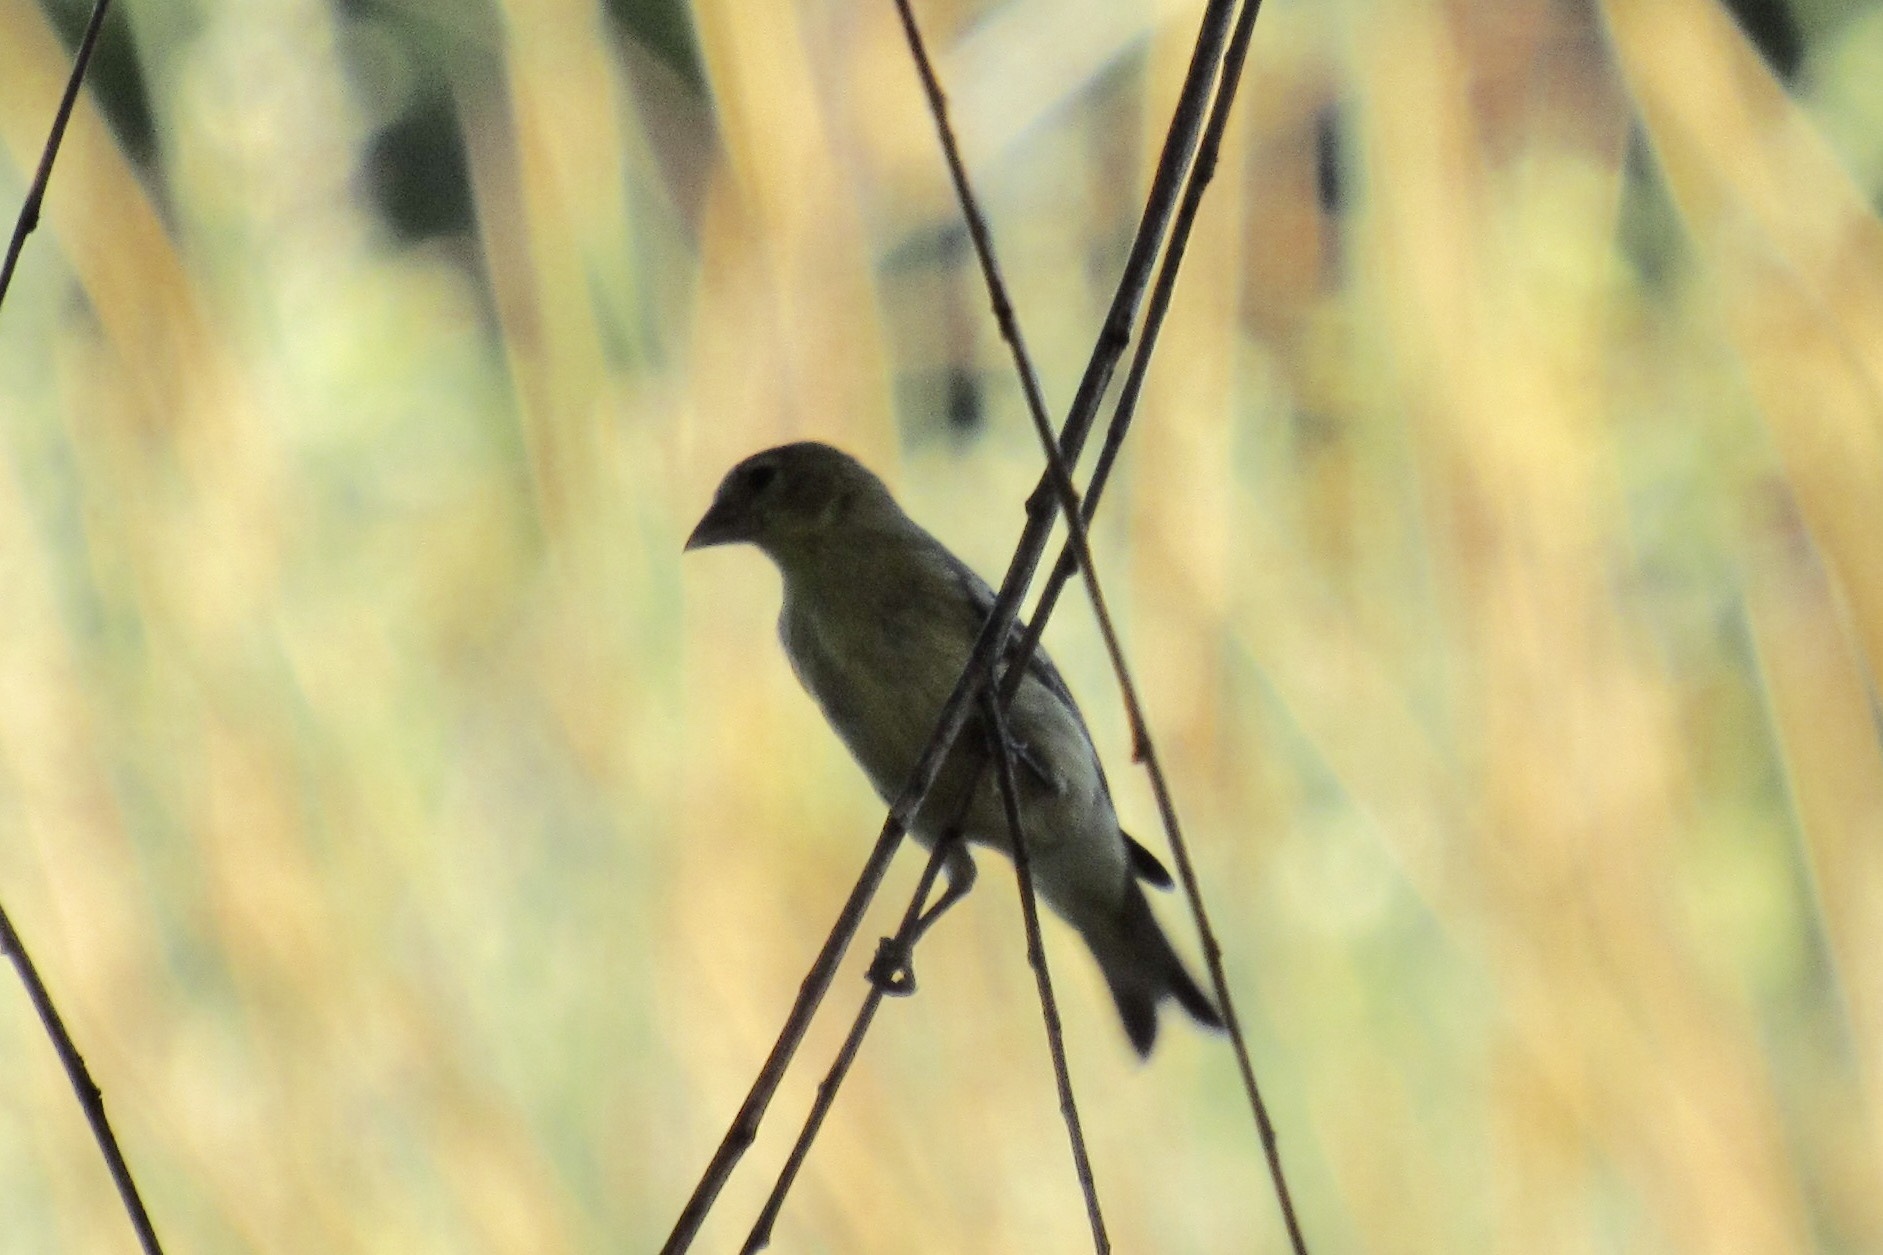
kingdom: Animalia
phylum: Chordata
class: Aves
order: Passeriformes
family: Fringillidae
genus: Spinus
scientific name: Spinus psaltria
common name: Lesser goldfinch
